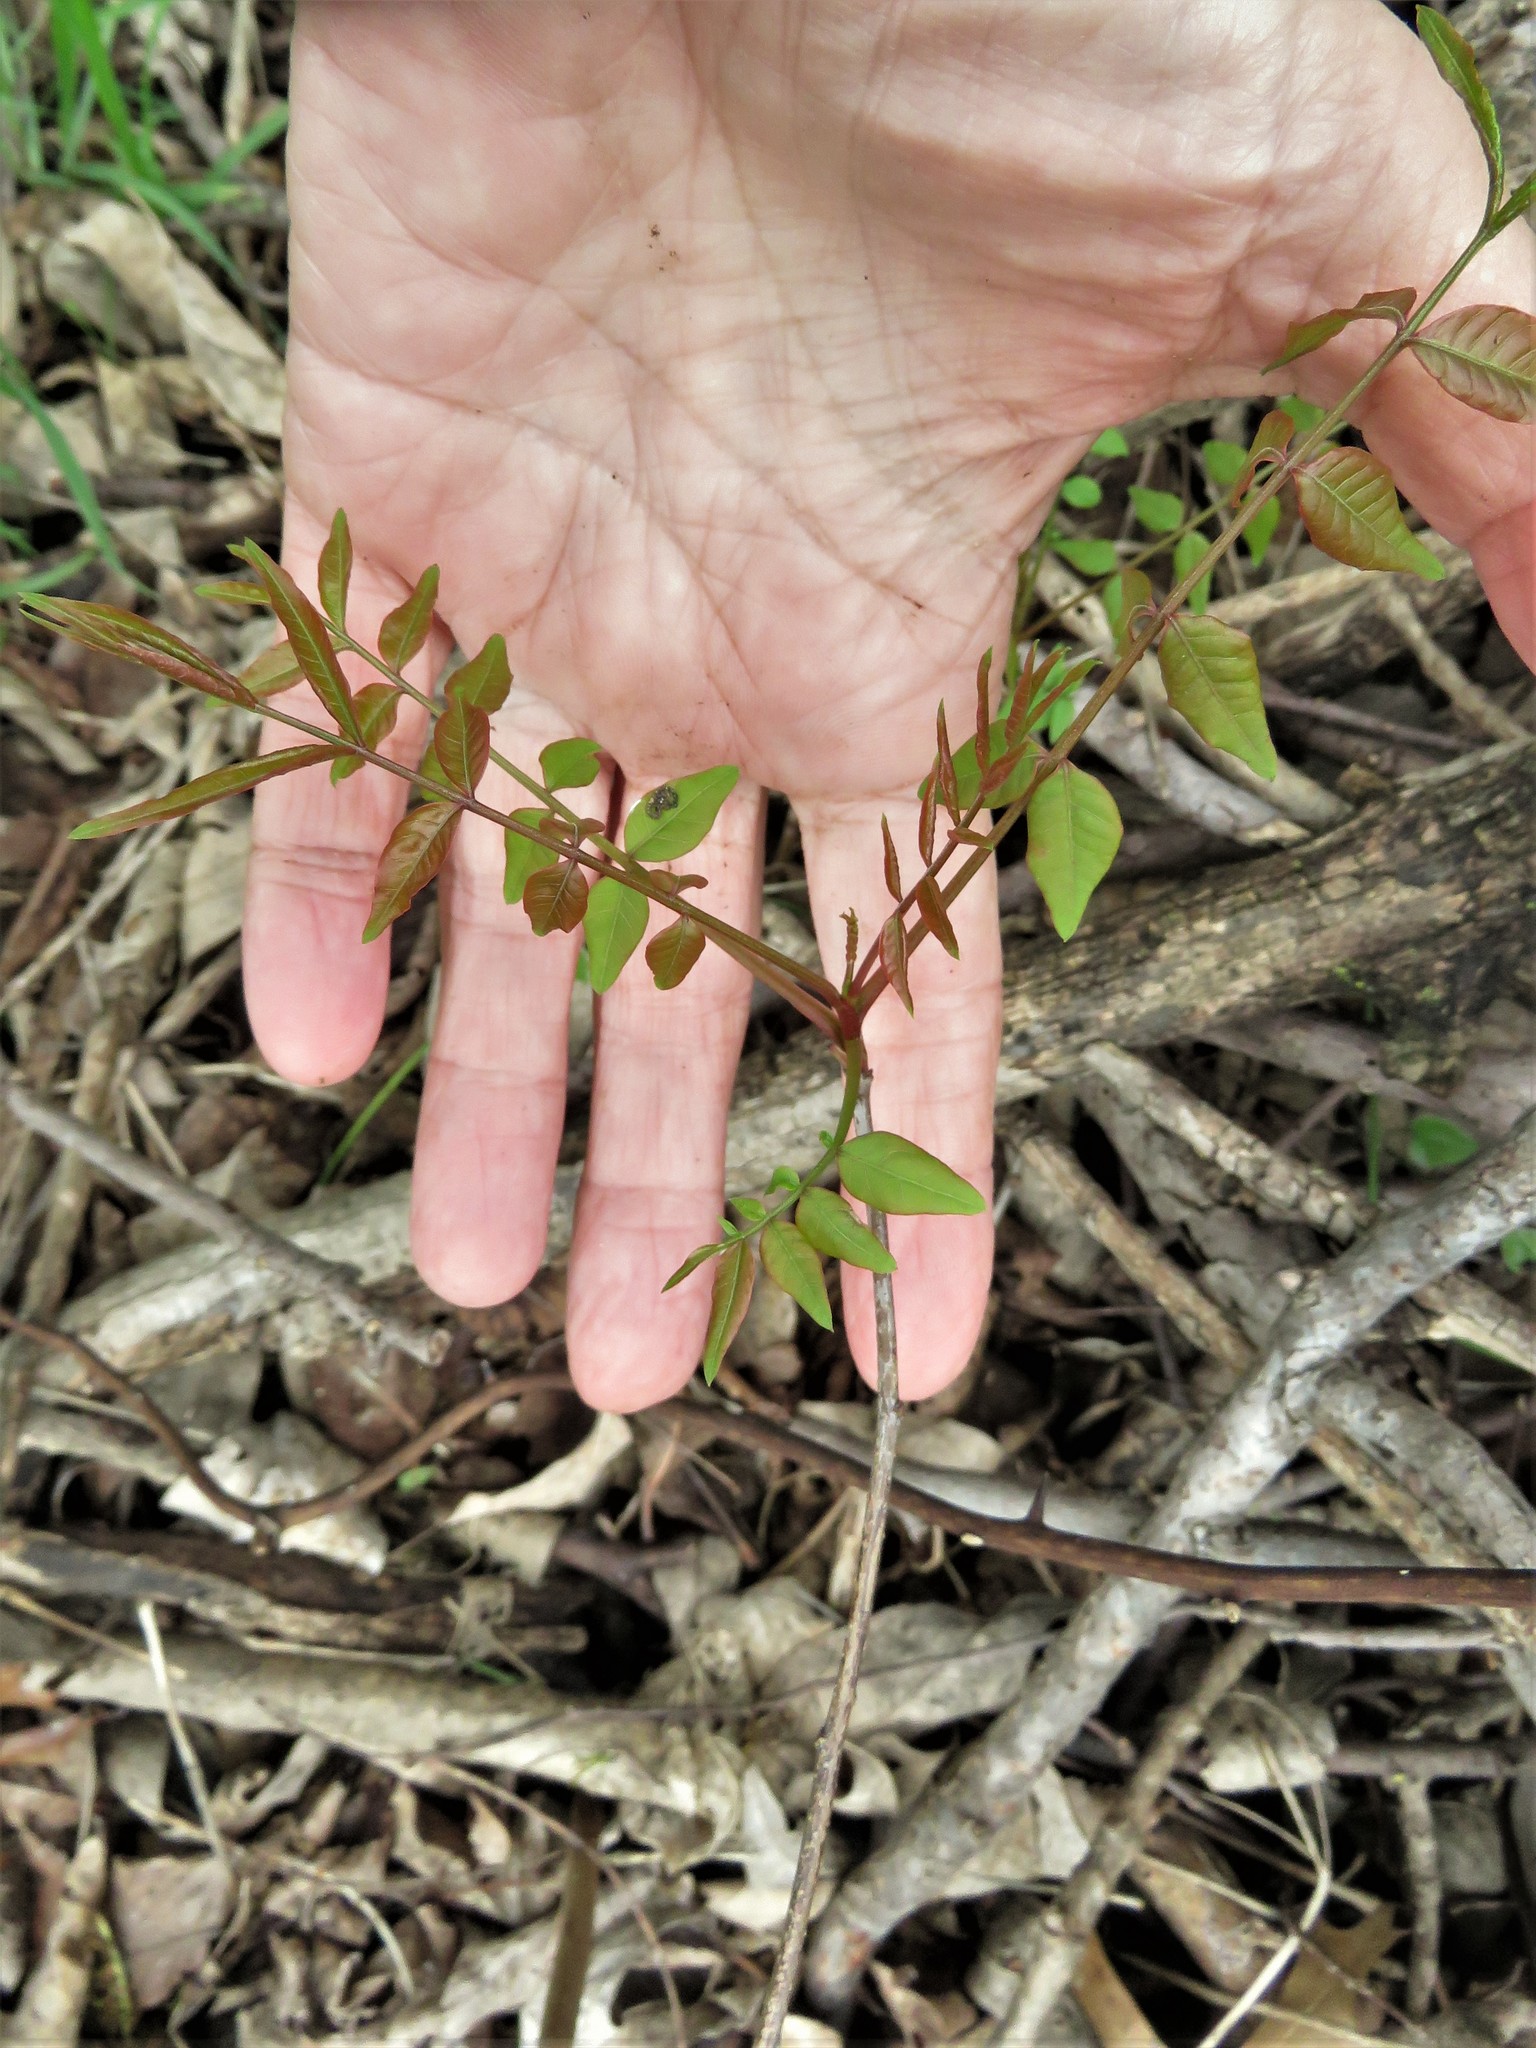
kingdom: Plantae
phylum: Tracheophyta
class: Magnoliopsida
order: Sapindales
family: Anacardiaceae
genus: Pistacia
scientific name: Pistacia chinensis
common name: Chinese pistache
